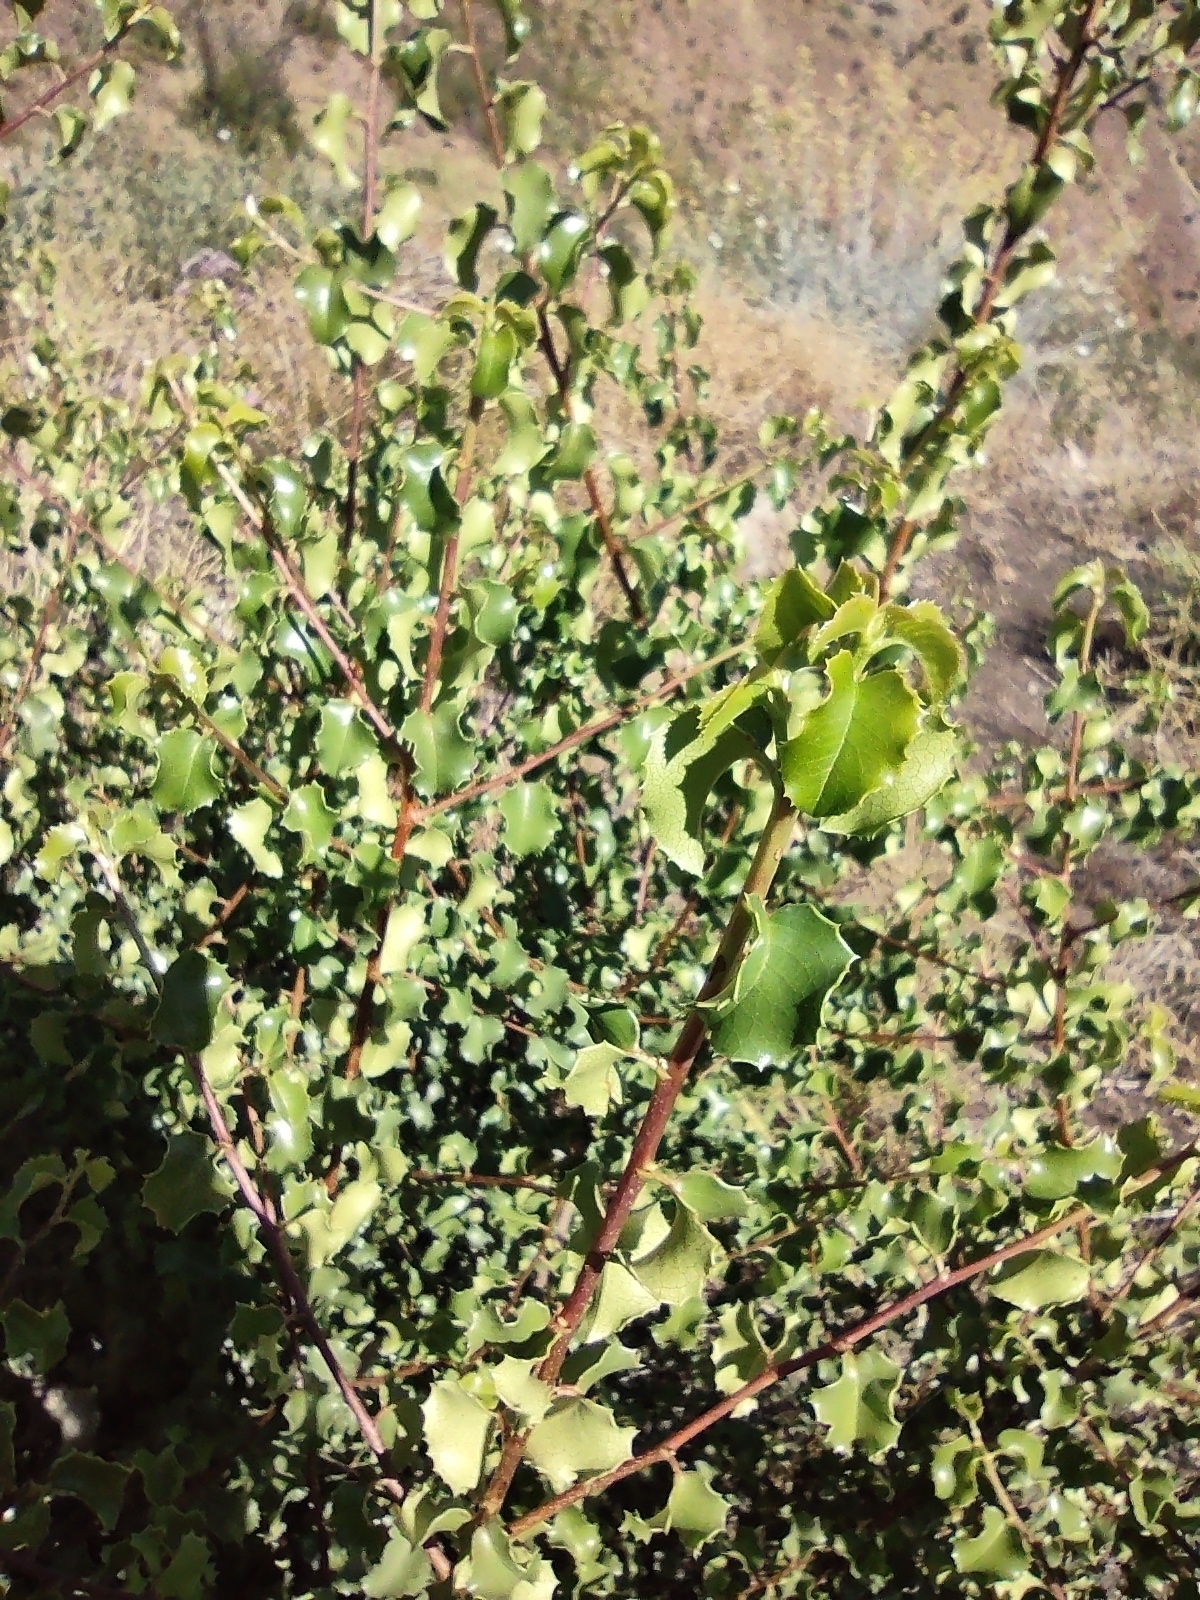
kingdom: Plantae
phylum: Tracheophyta
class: Magnoliopsida
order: Rosales
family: Rosaceae
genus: Prunus
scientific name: Prunus ilicifolia
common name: Hollyleaf cherry
